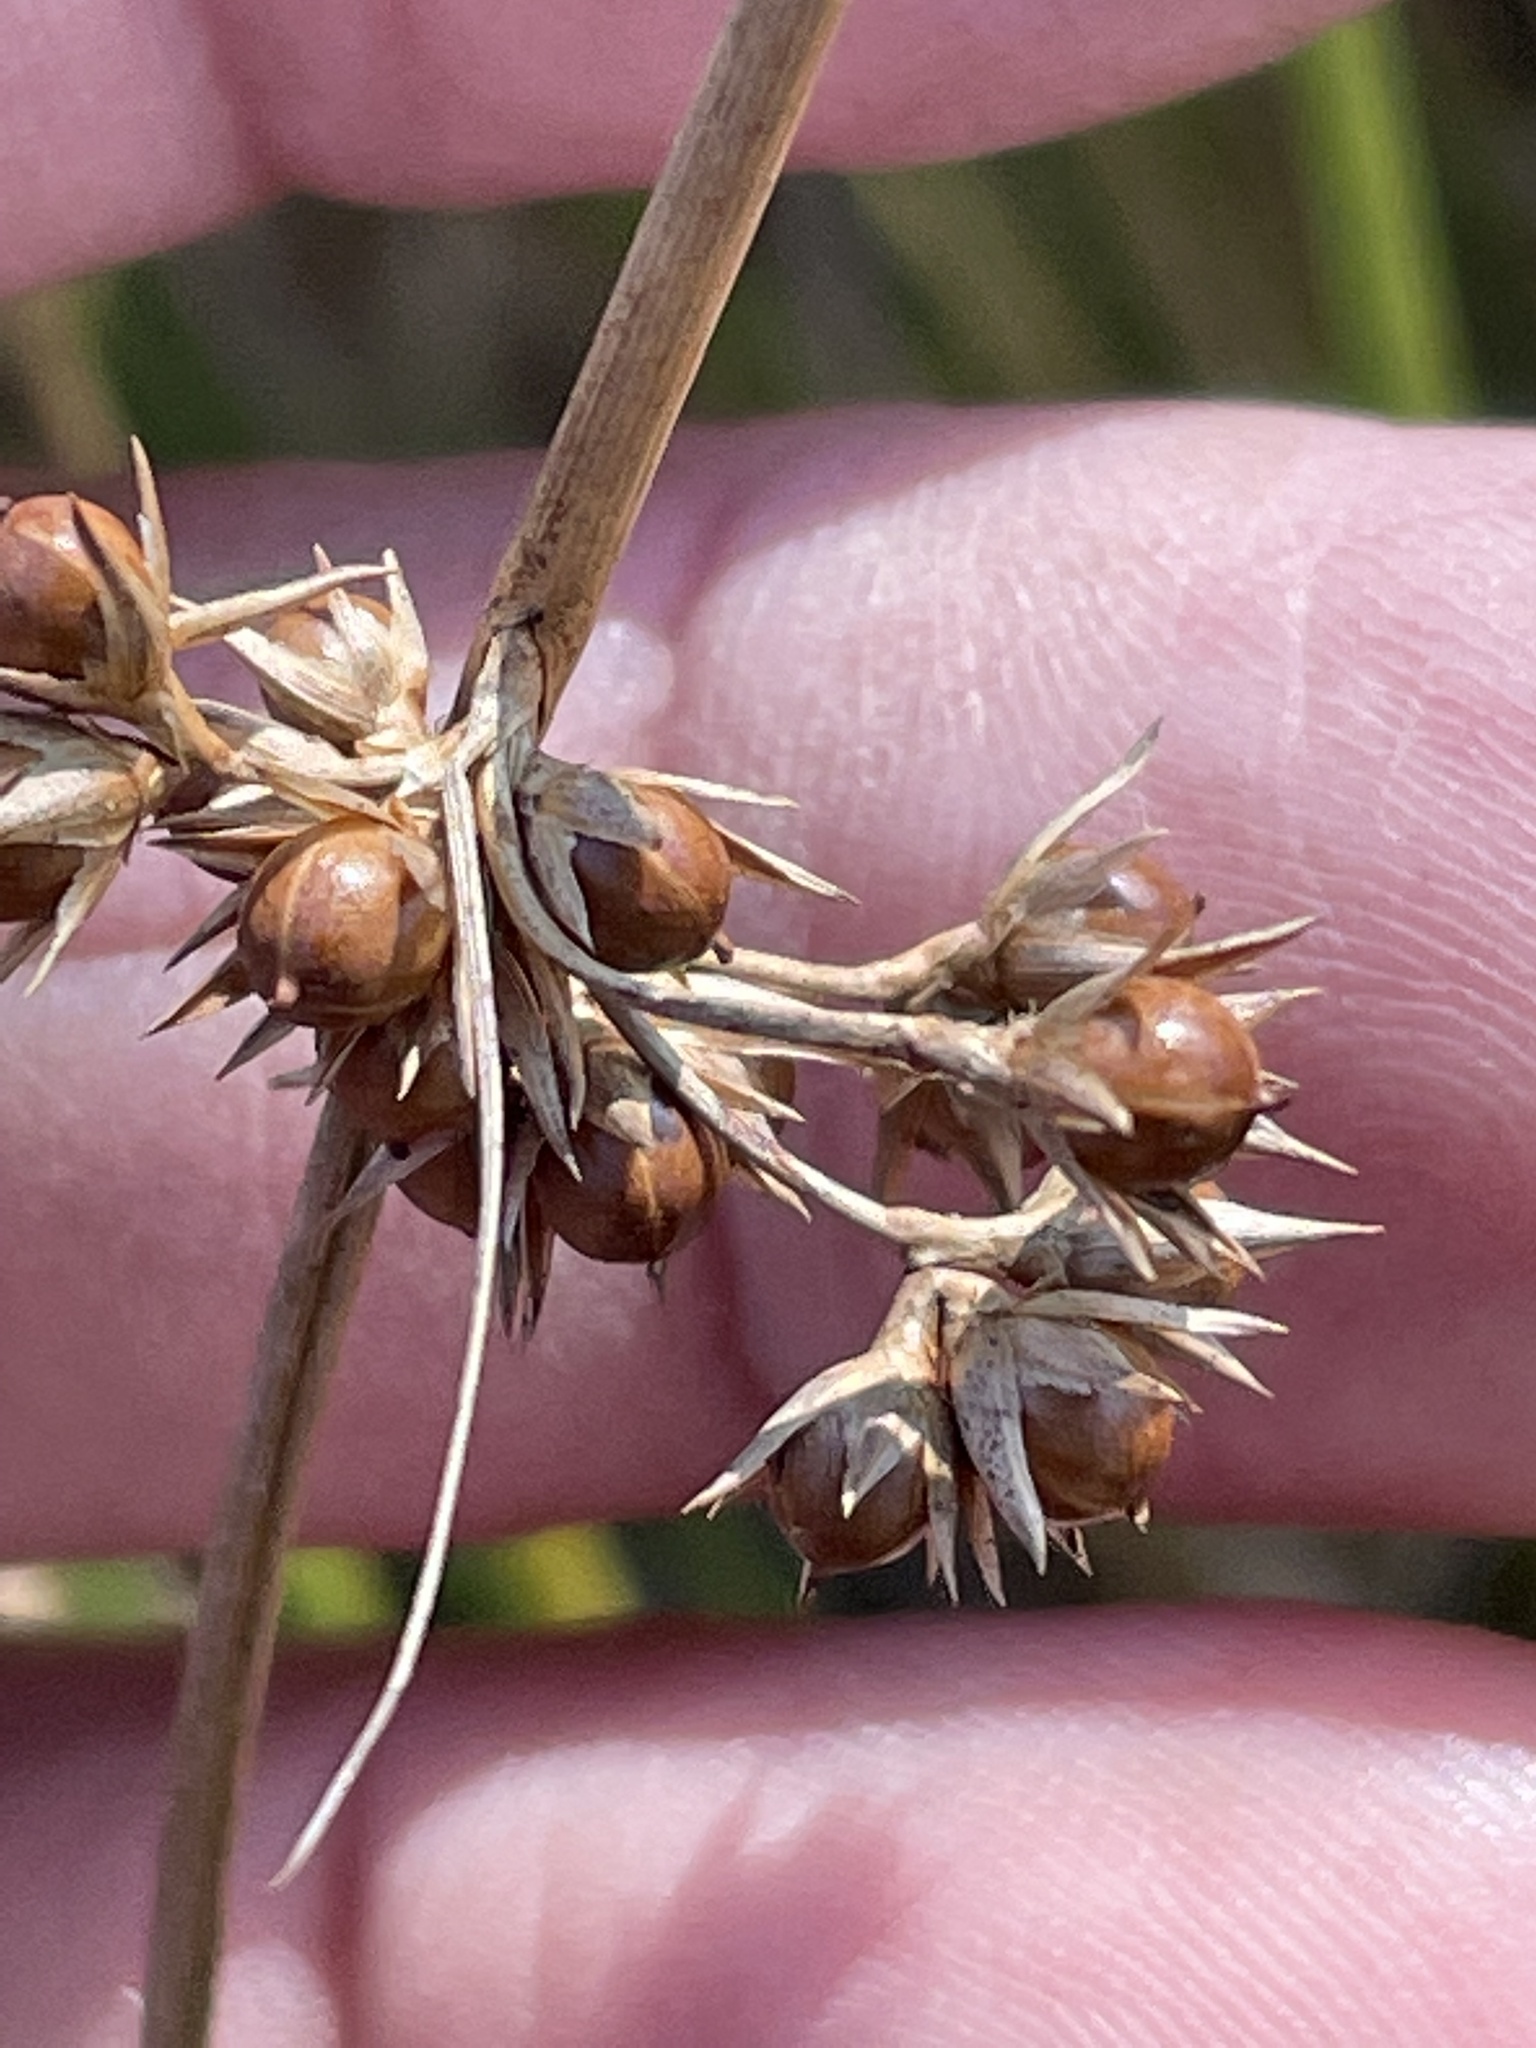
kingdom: Plantae
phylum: Tracheophyta
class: Liliopsida
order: Poales
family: Juncaceae
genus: Juncus
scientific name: Juncus coriaceus
